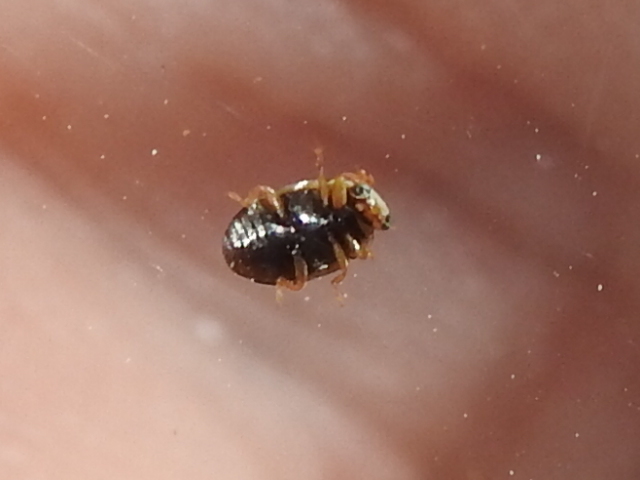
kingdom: Animalia
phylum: Arthropoda
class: Insecta
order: Coleoptera
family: Coccinellidae
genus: Hyperaspis
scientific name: Hyperaspis punctata
